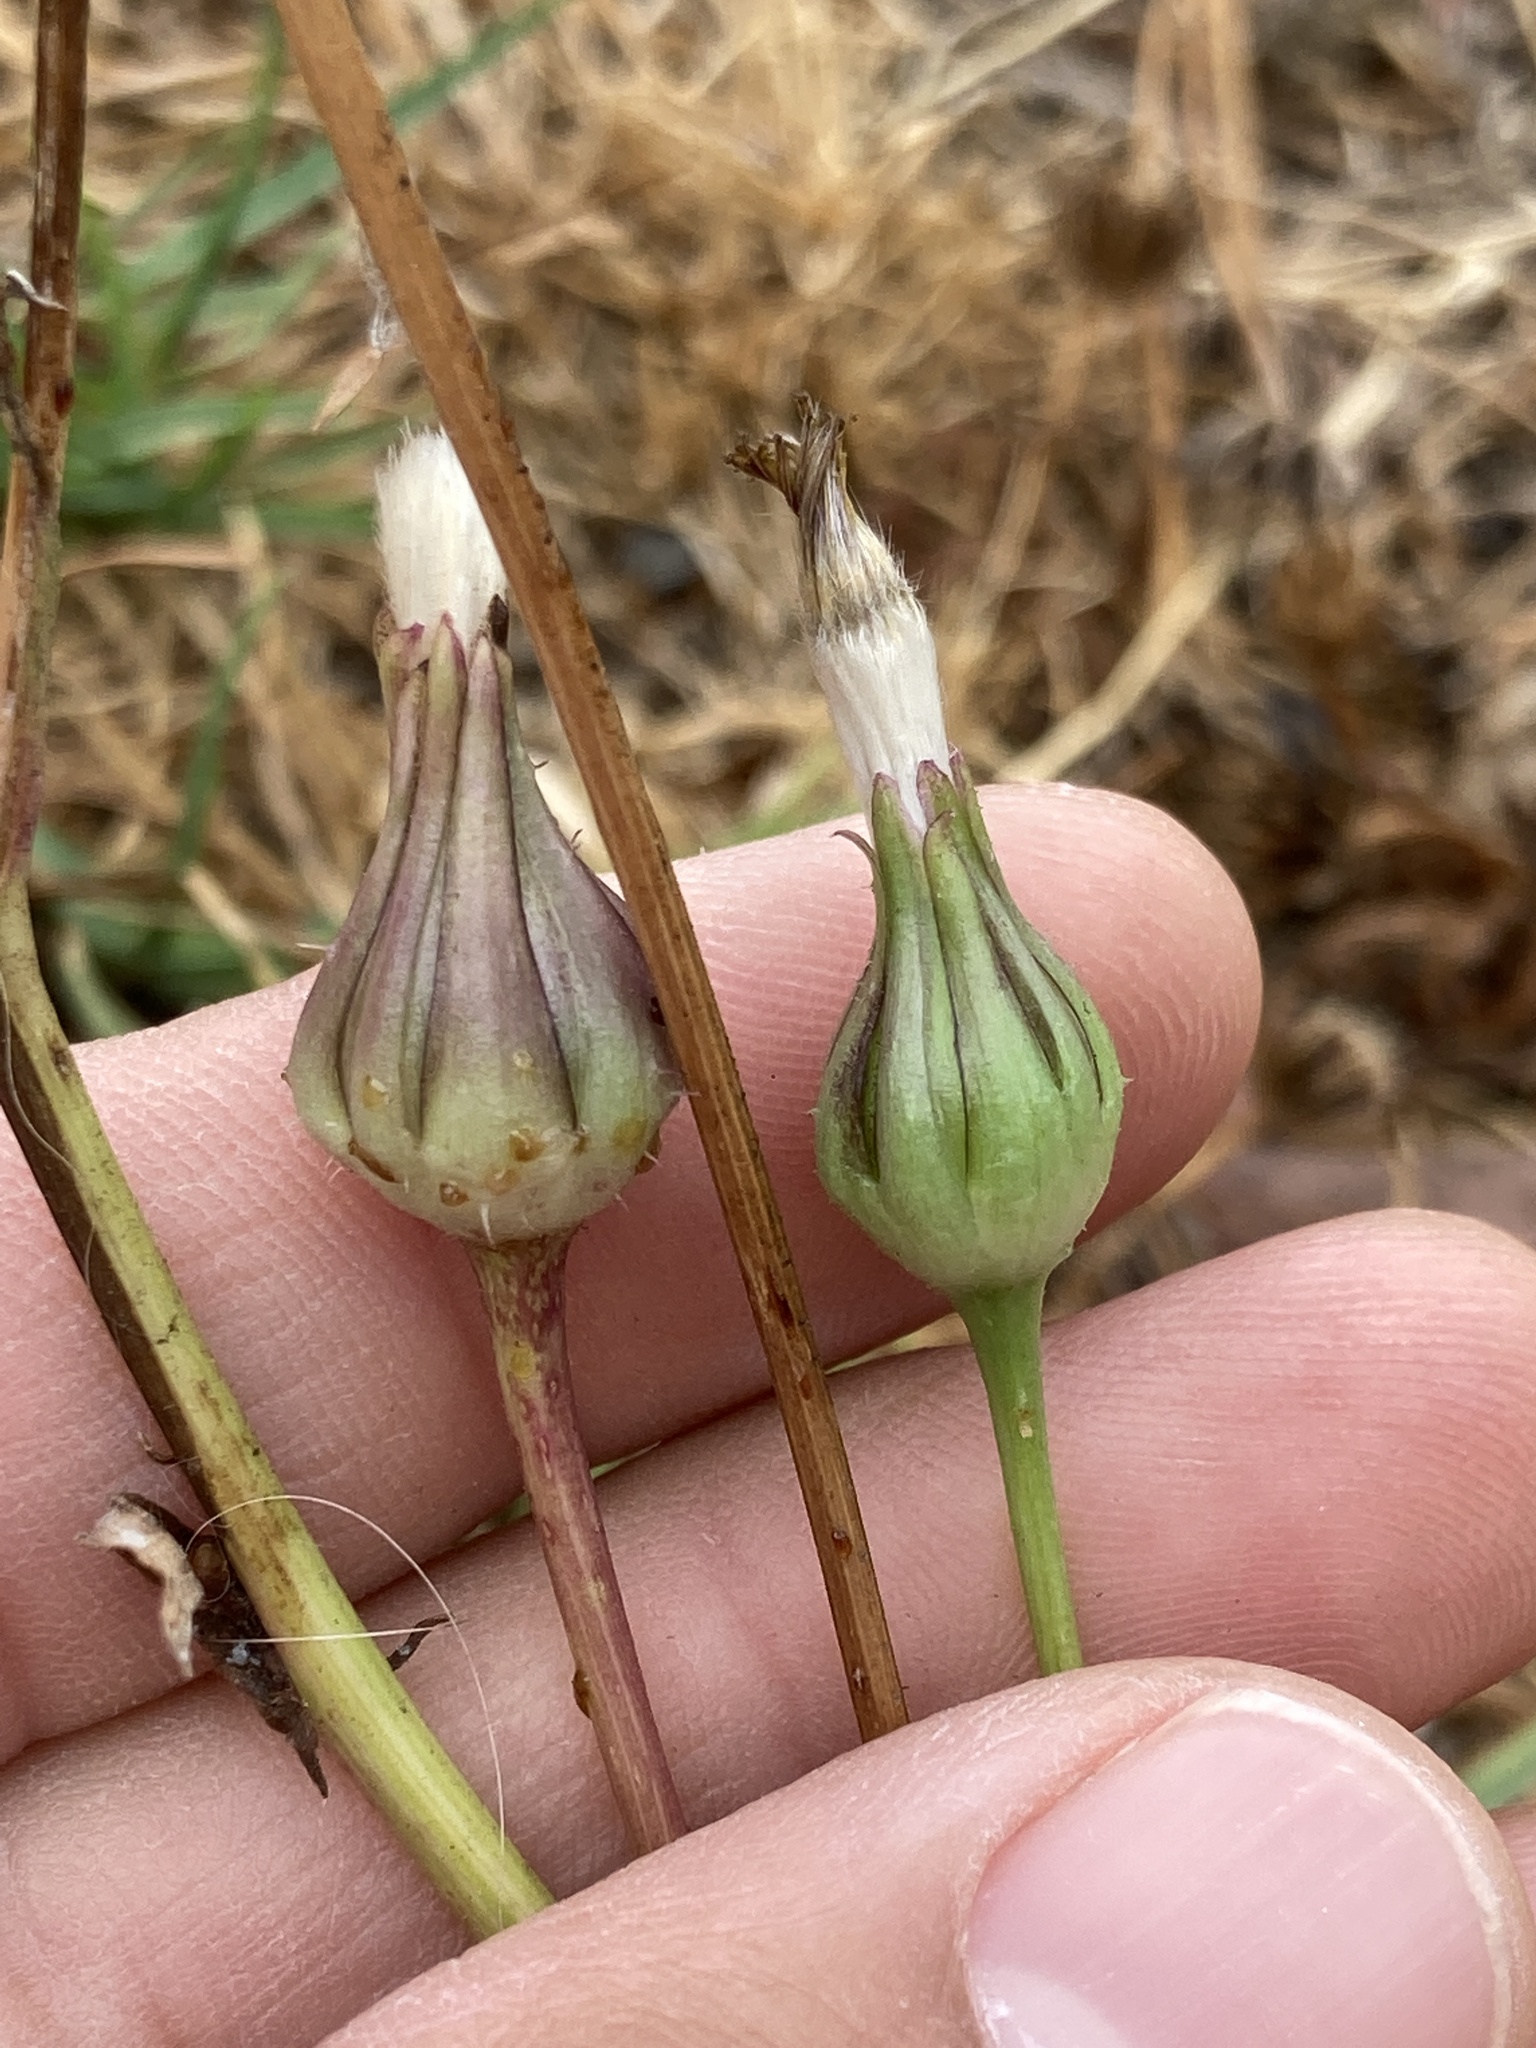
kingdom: Plantae
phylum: Tracheophyta
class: Magnoliopsida
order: Asterales
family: Asteraceae
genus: Urospermum
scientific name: Urospermum picroides
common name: False hawkbit
